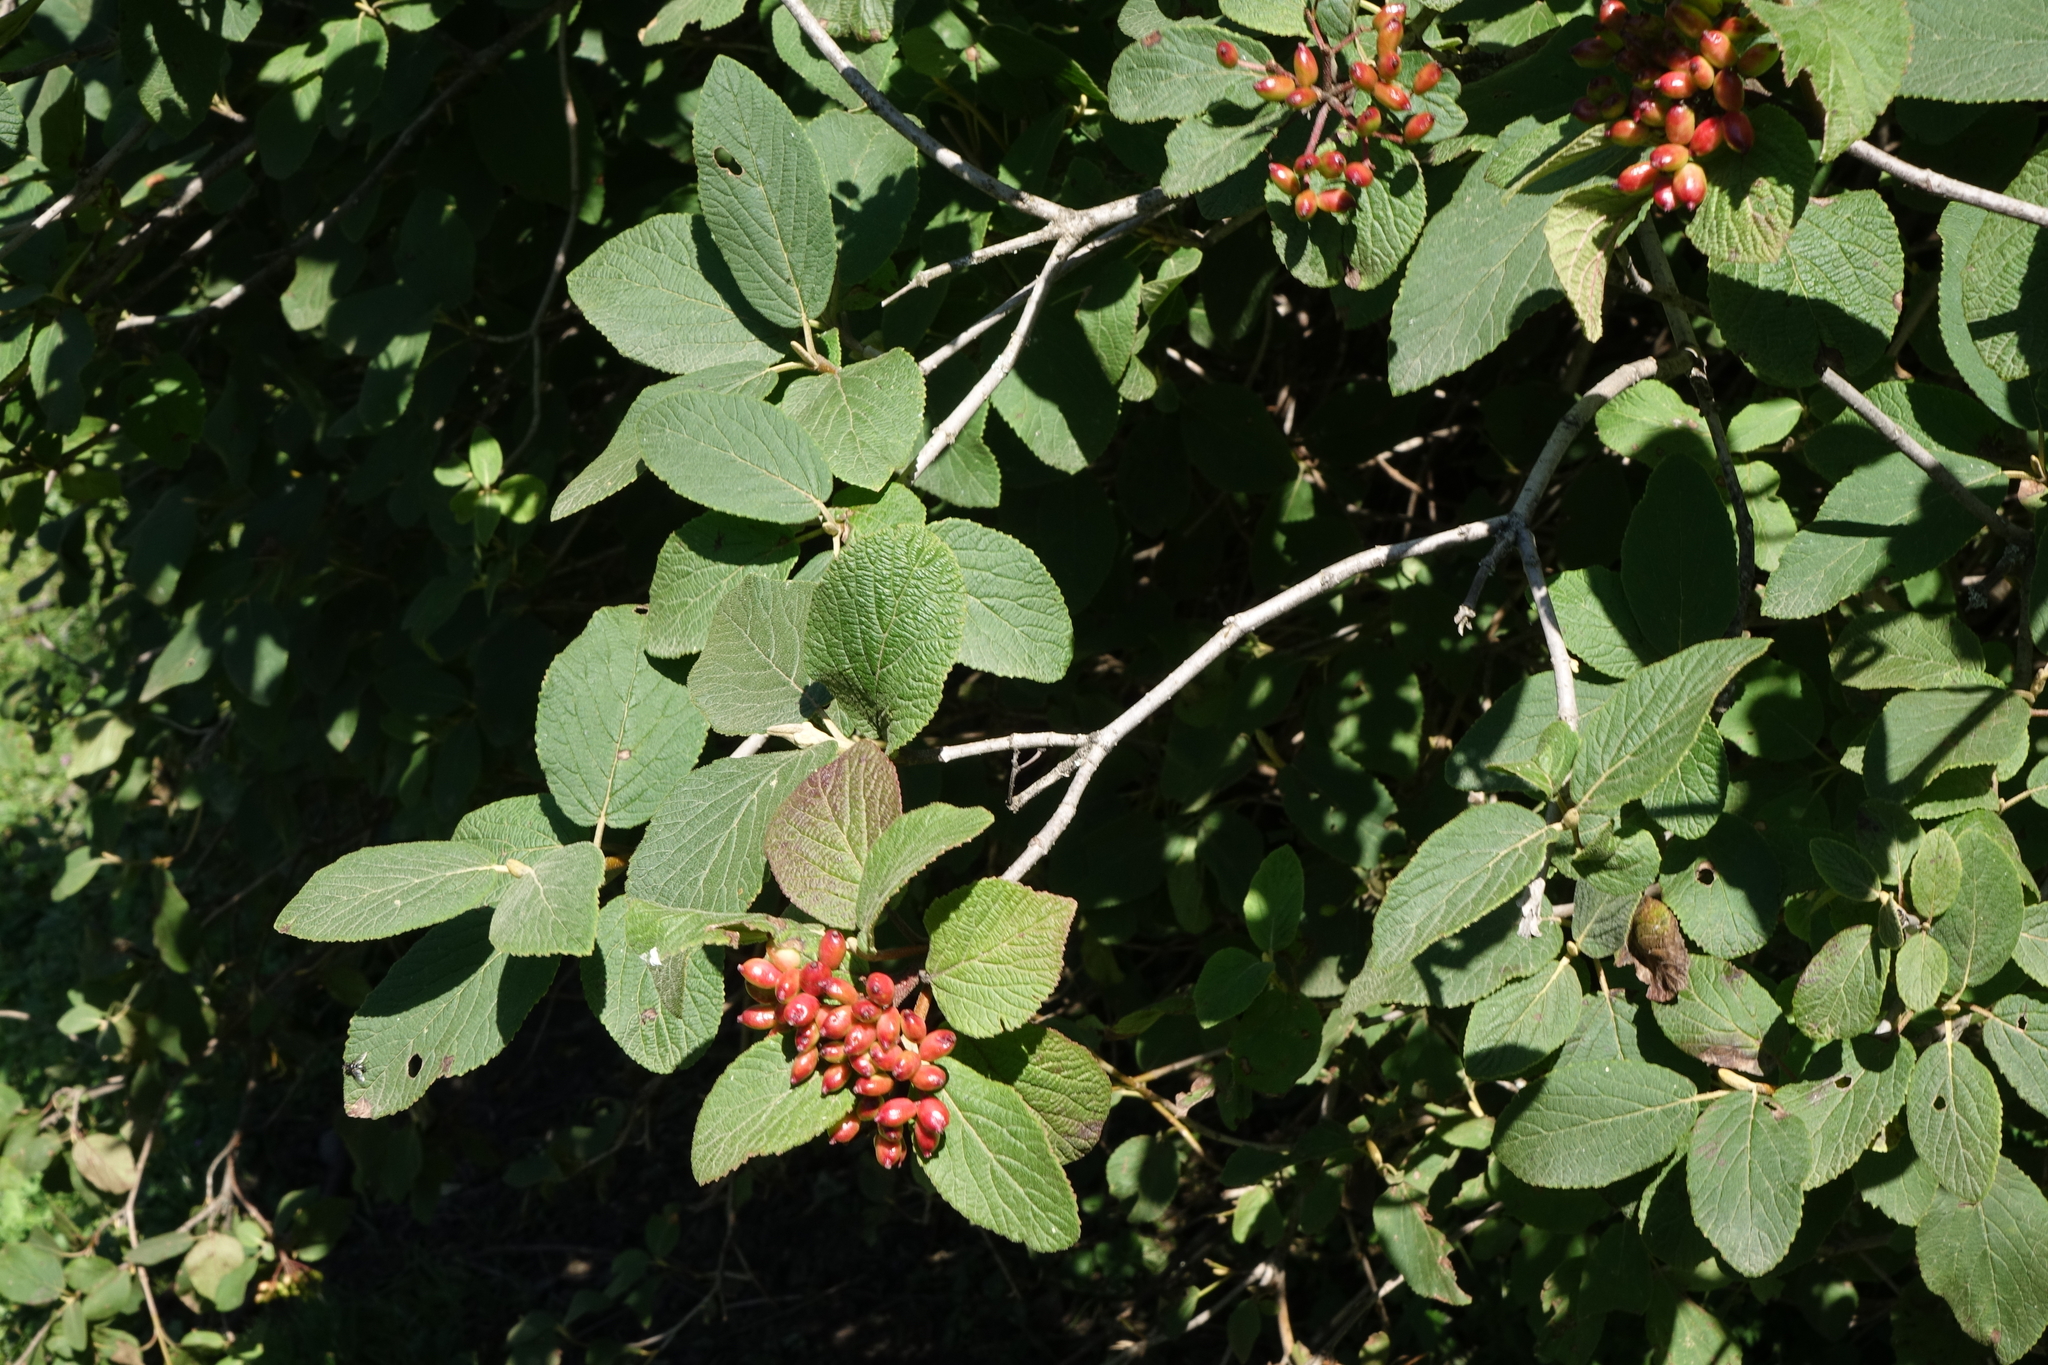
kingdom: Plantae
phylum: Tracheophyta
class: Magnoliopsida
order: Dipsacales
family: Viburnaceae
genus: Viburnum
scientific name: Viburnum lantana
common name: Wayfaring tree
